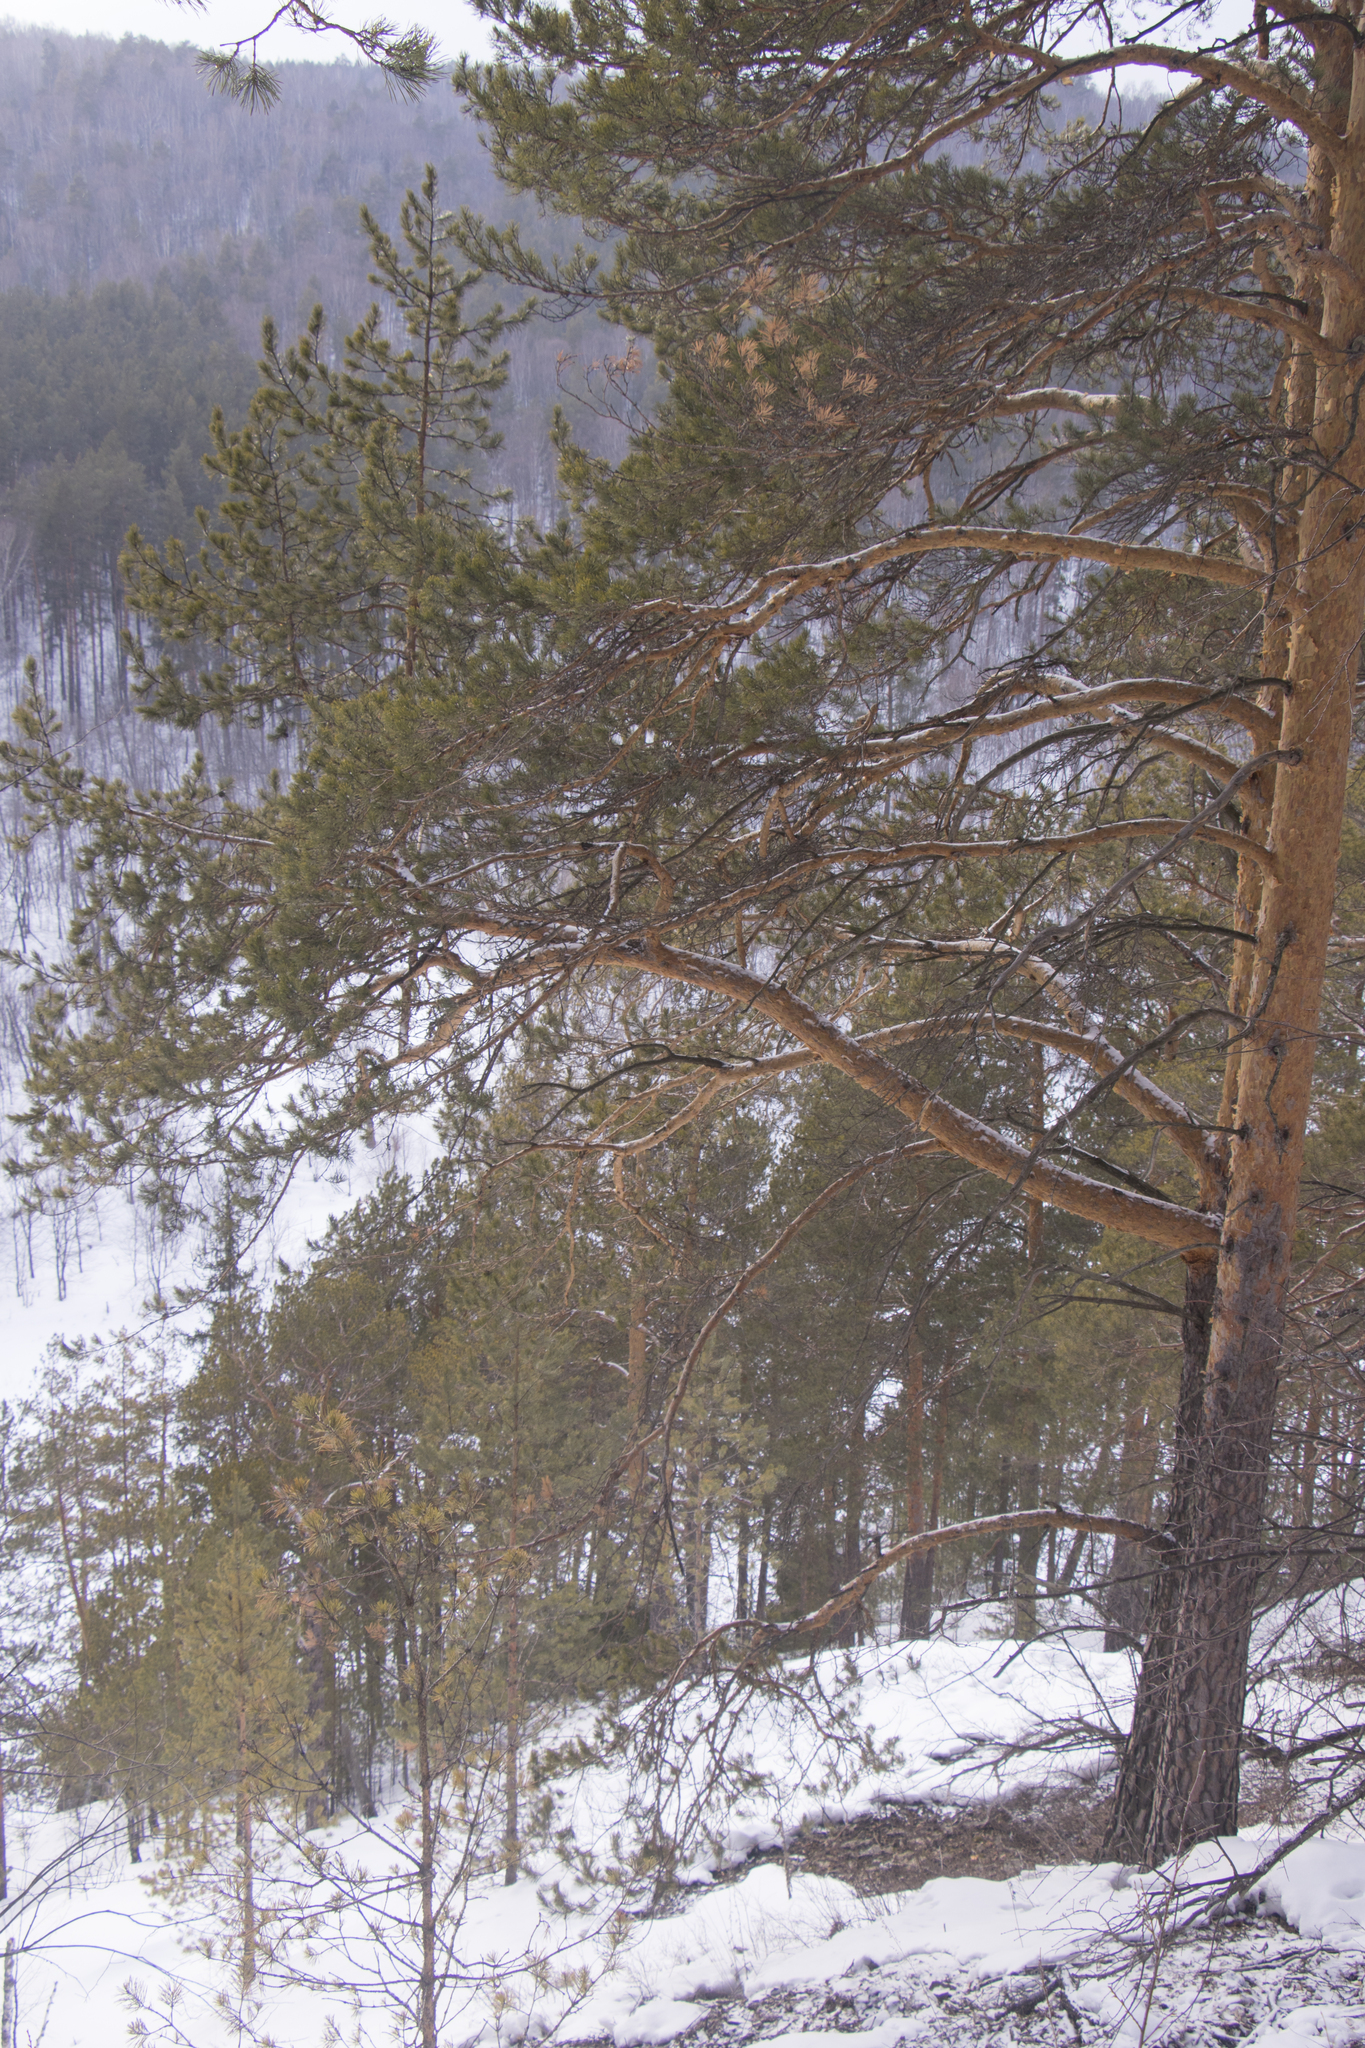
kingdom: Plantae
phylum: Tracheophyta
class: Pinopsida
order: Pinales
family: Pinaceae
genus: Pinus
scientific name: Pinus sylvestris
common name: Scots pine
